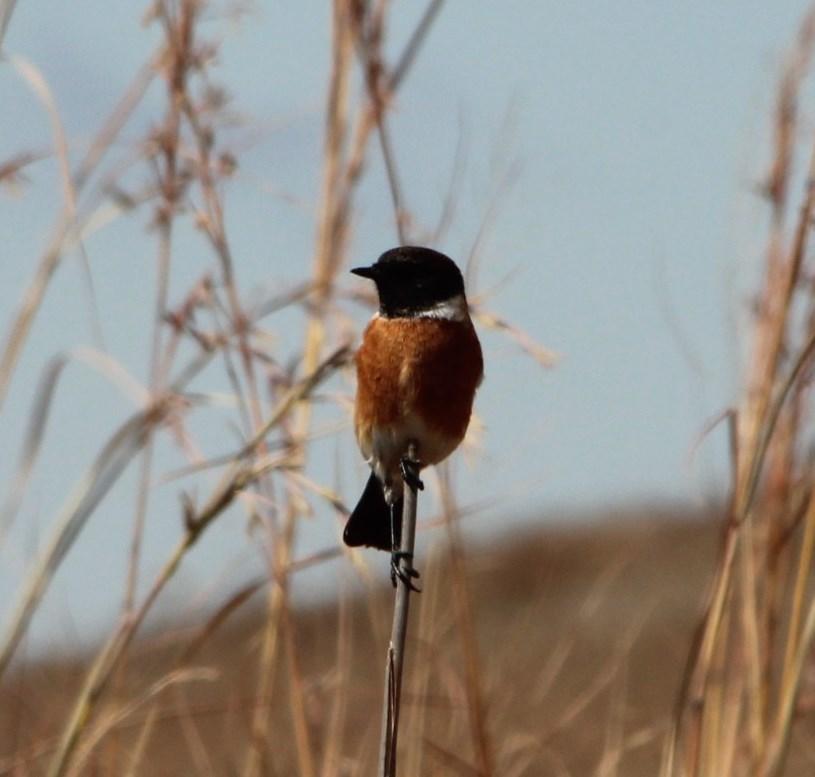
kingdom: Animalia
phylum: Chordata
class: Aves
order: Passeriformes
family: Muscicapidae
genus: Saxicola
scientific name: Saxicola torquatus
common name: African stonechat
